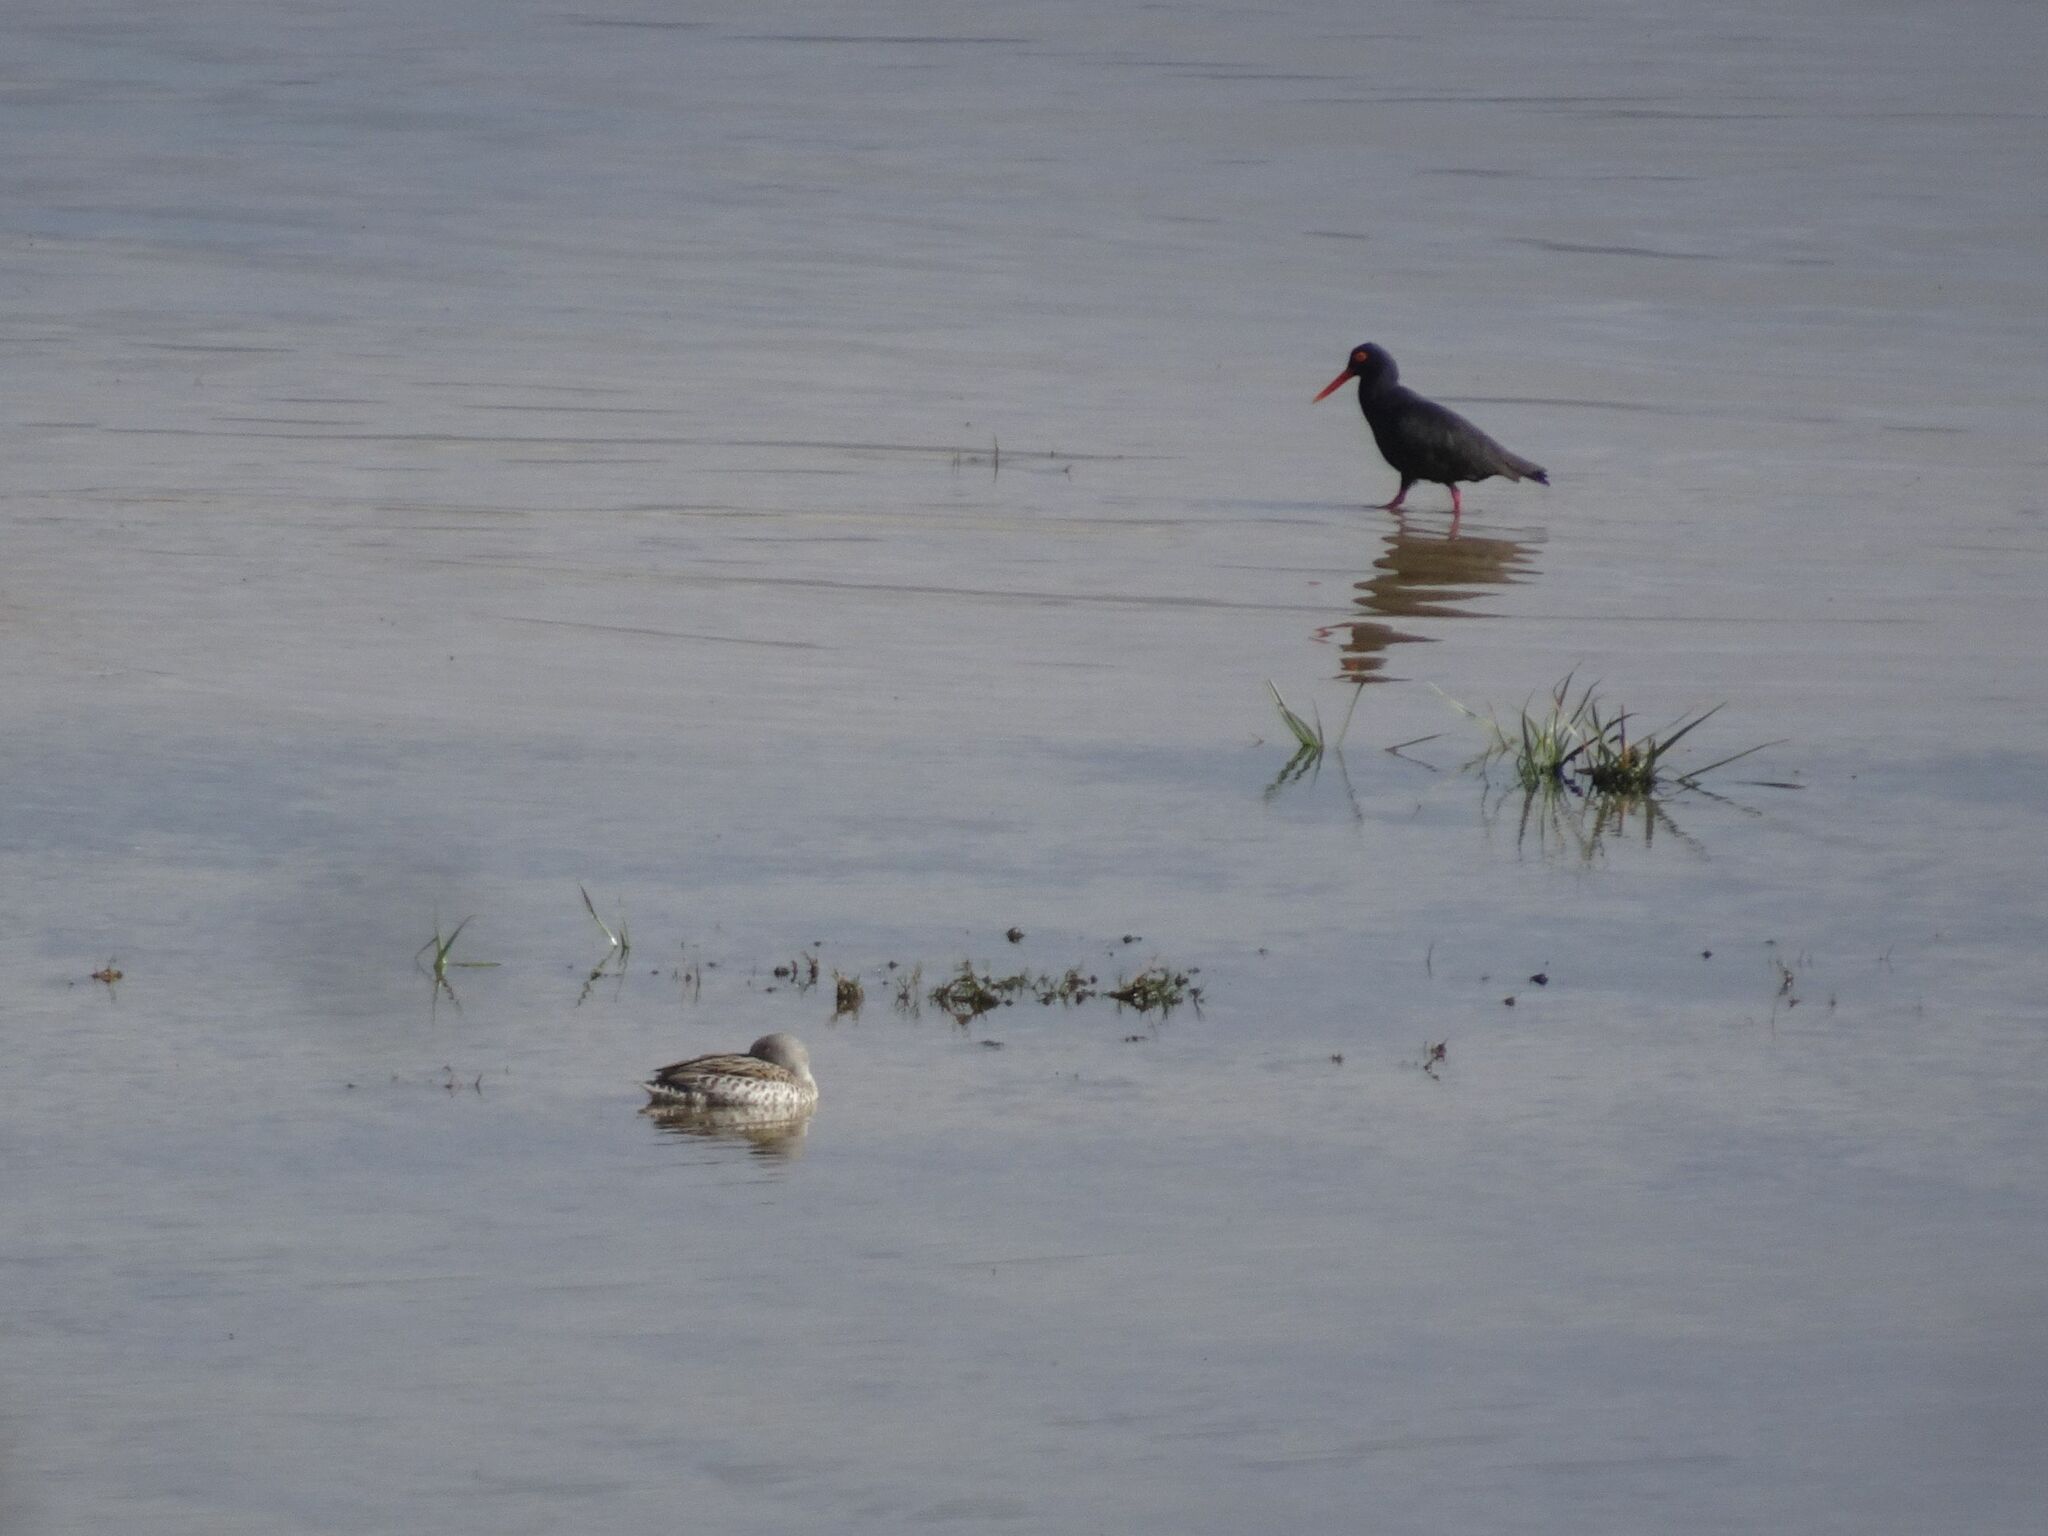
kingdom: Animalia
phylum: Chordata
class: Aves
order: Anseriformes
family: Anatidae
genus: Anas
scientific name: Anas capensis
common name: Cape teal
